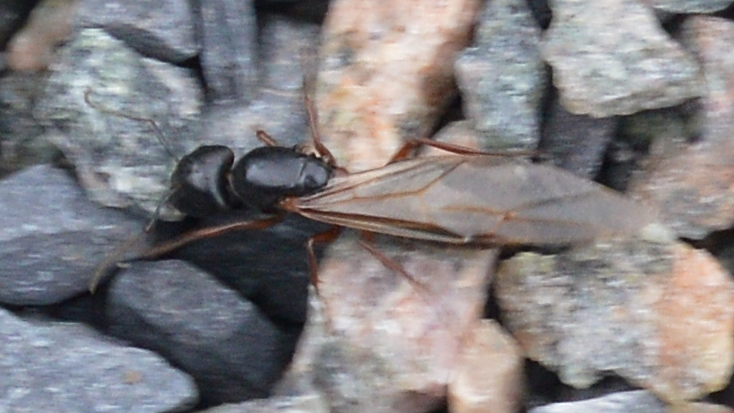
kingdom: Animalia
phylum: Arthropoda
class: Insecta
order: Hymenoptera
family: Formicidae
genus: Camponotus
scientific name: Camponotus herculeanus
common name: Hercules ant
